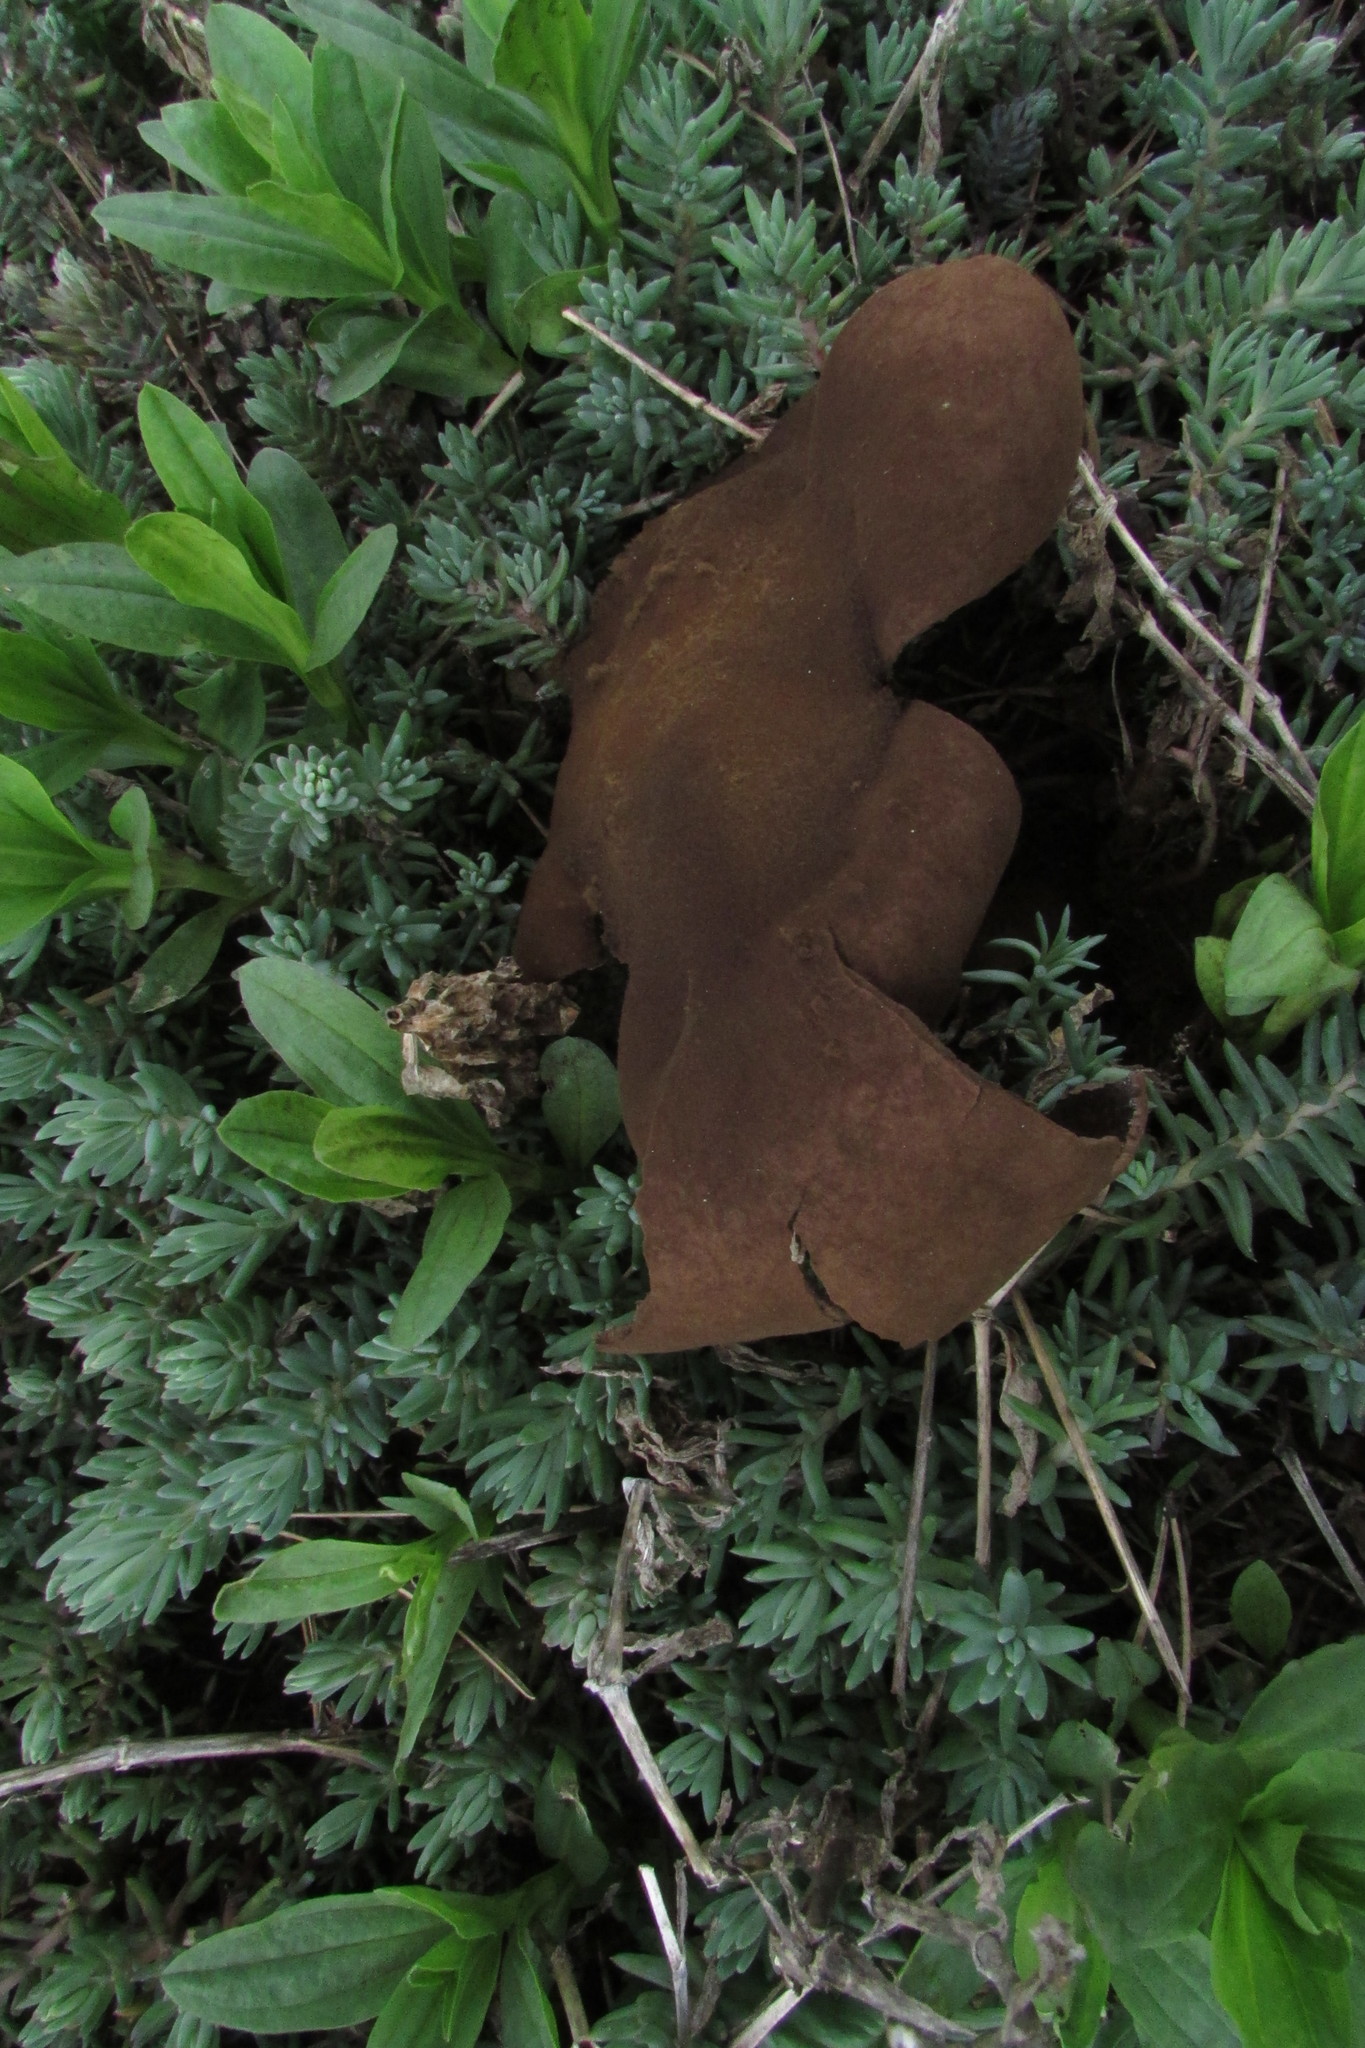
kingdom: Fungi
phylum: Basidiomycota
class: Agaricomycetes
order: Agaricales
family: Agaricaceae
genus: Mycenastrum
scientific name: Mycenastrum corium
